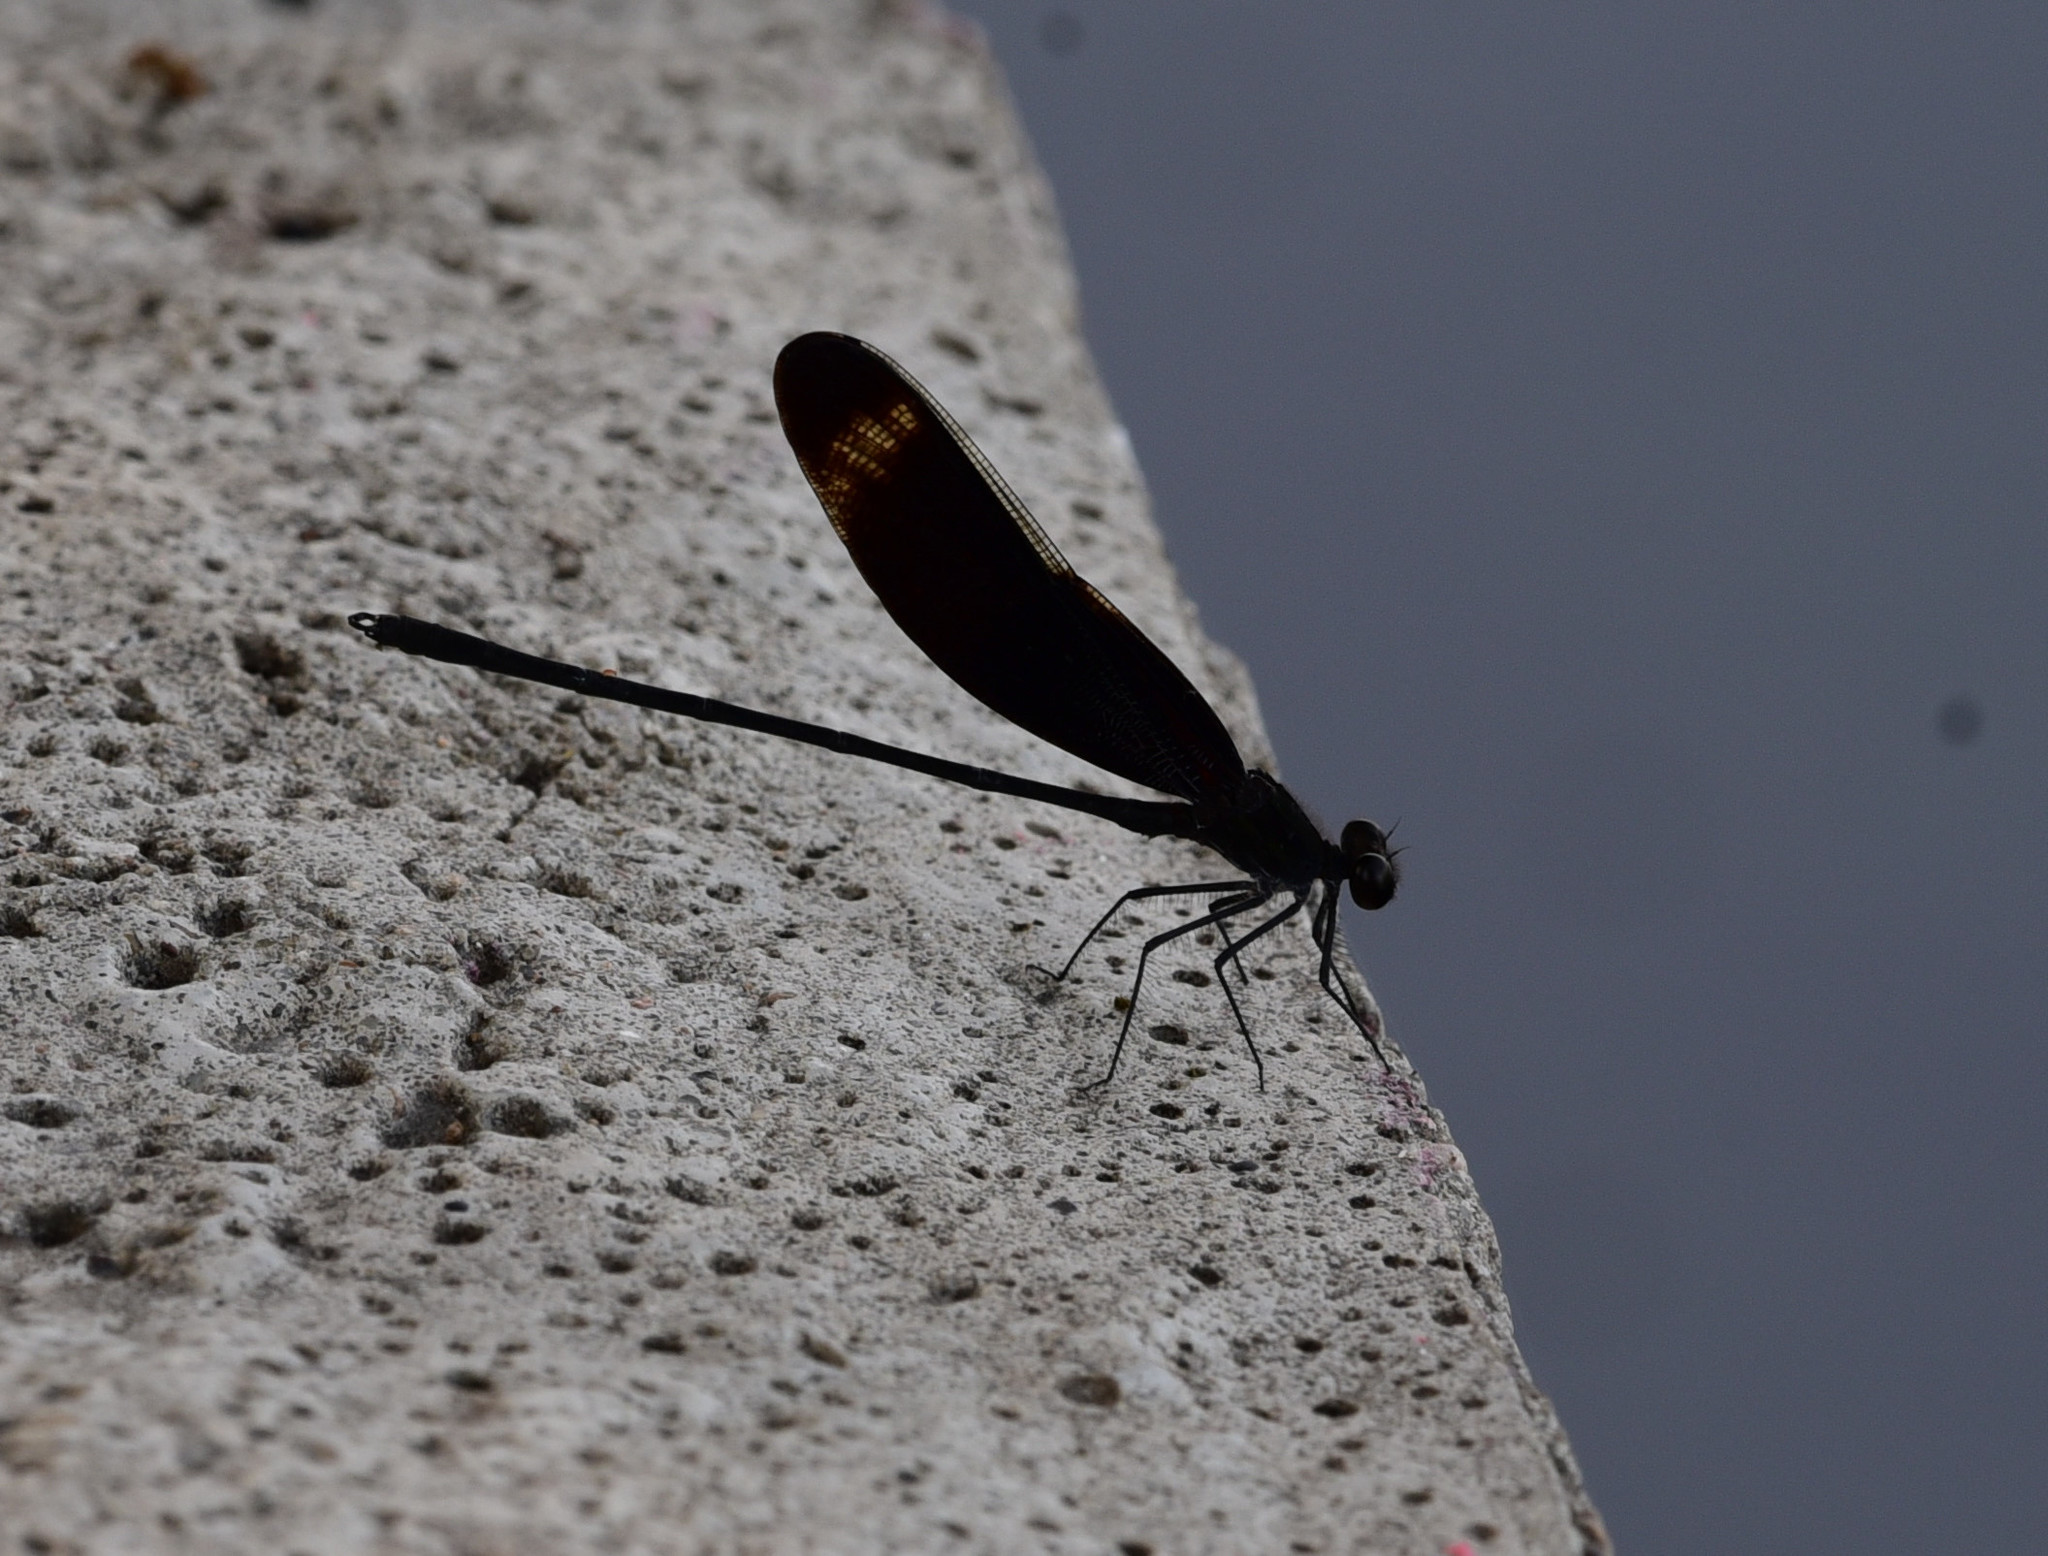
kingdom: Animalia
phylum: Arthropoda
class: Insecta
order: Odonata
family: Calopterygidae
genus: Hetaerina
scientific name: Hetaerina titia
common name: Smoky rubyspot
